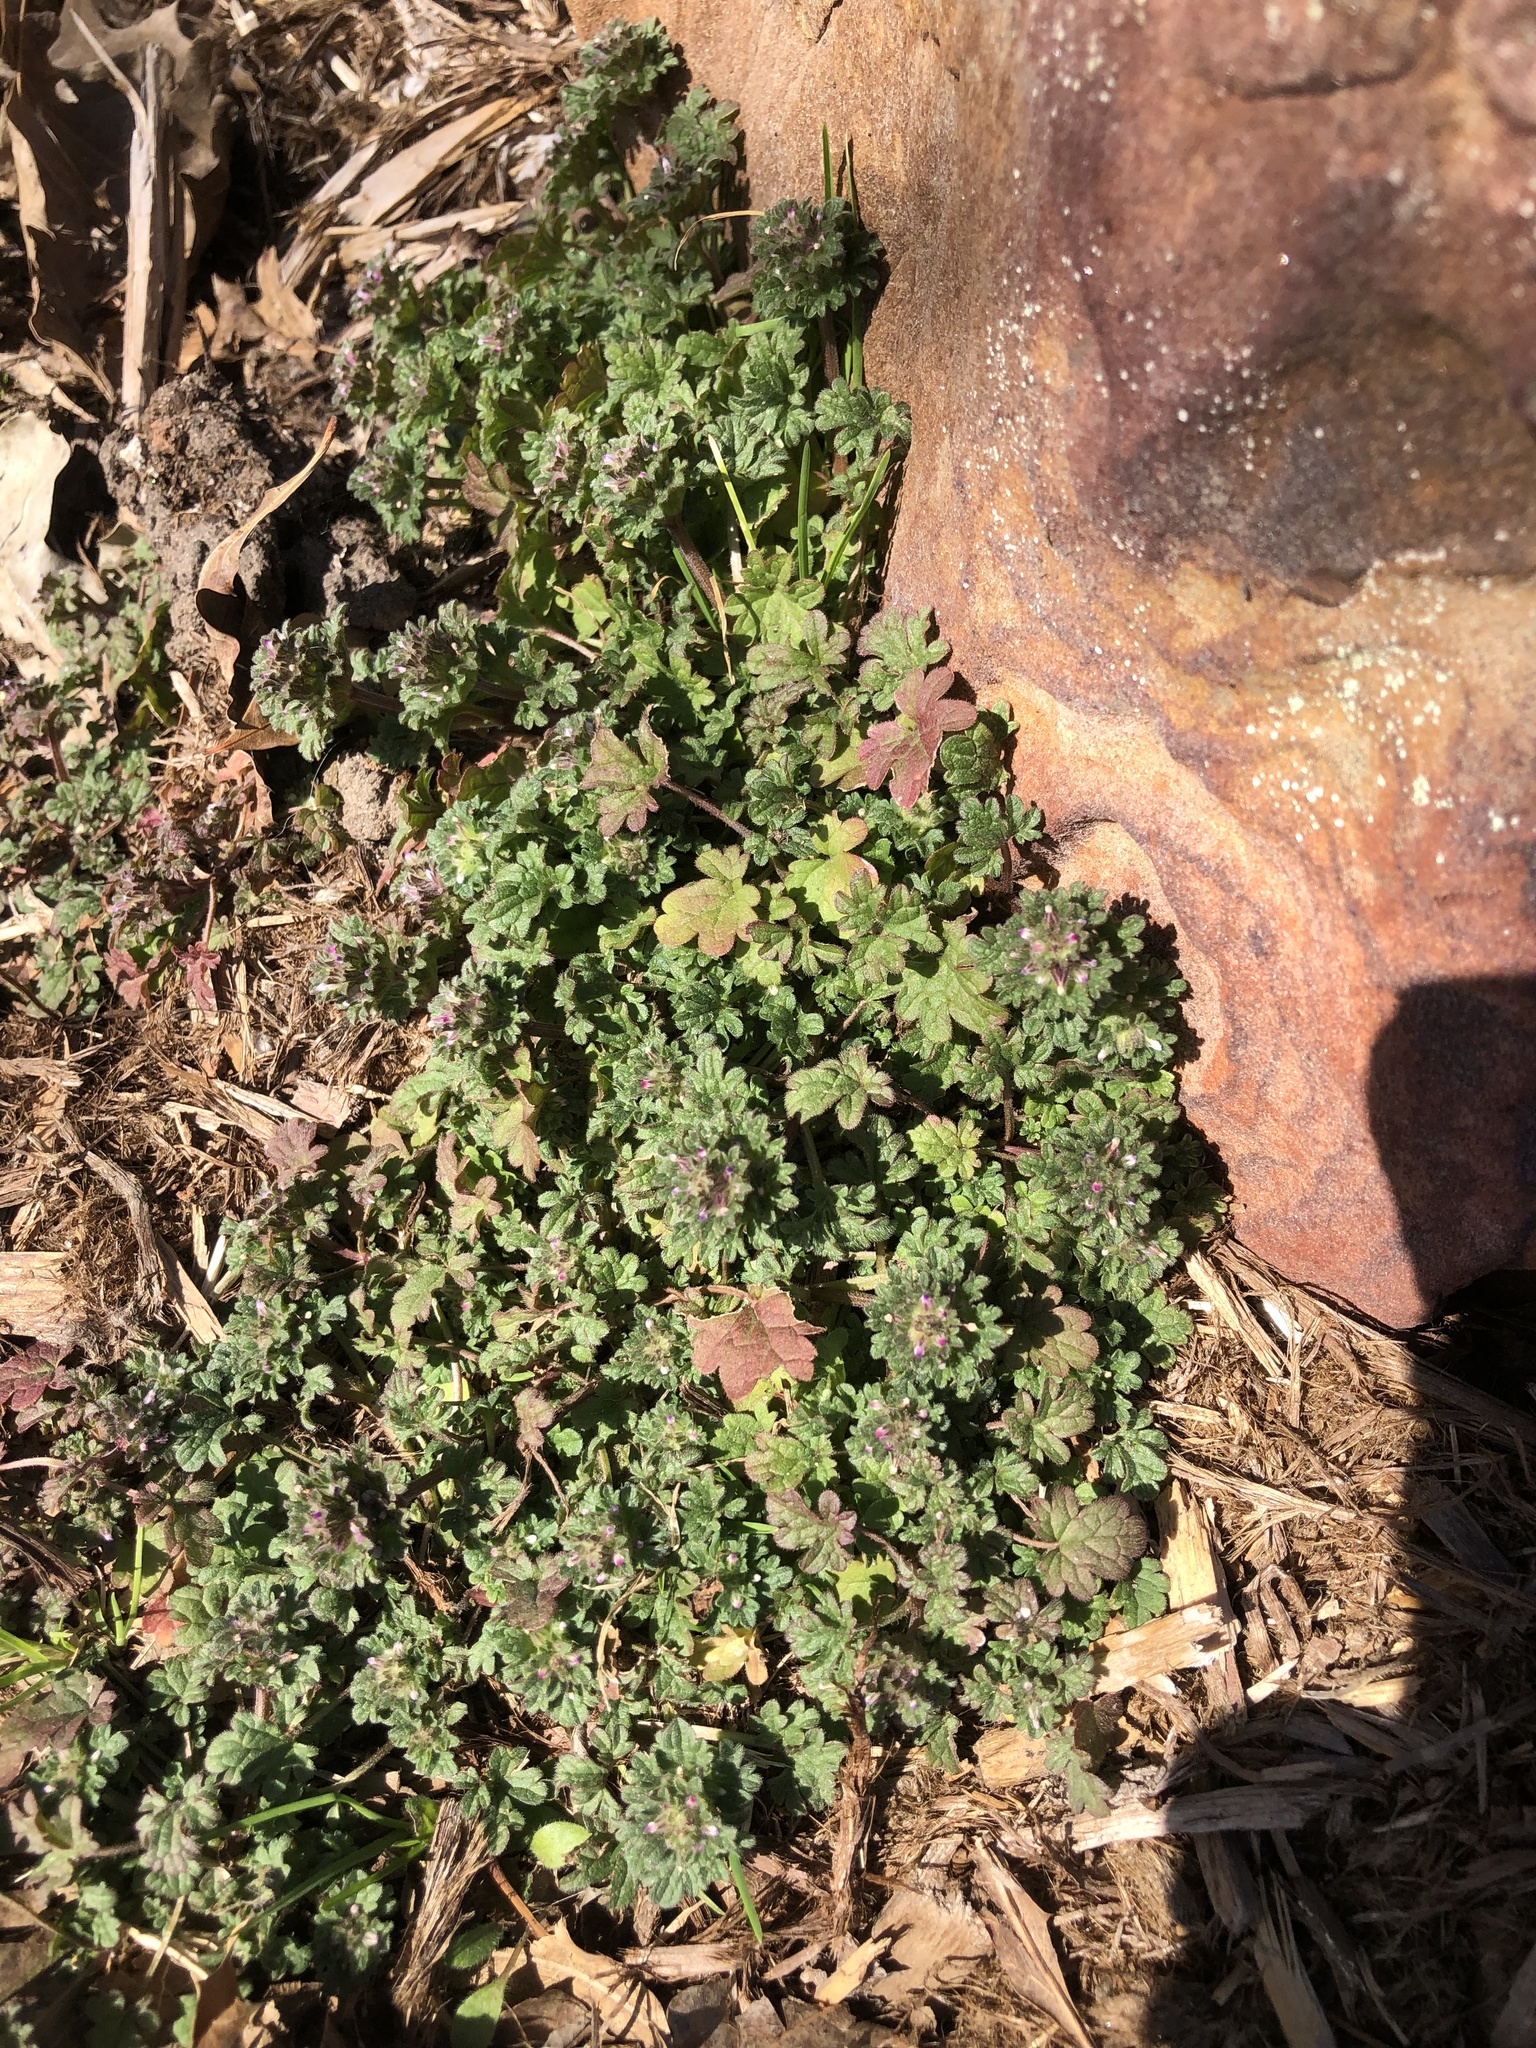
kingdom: Plantae
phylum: Tracheophyta
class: Magnoliopsida
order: Lamiales
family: Lamiaceae
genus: Lamium
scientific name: Lamium amplexicaule
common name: Henbit dead-nettle
